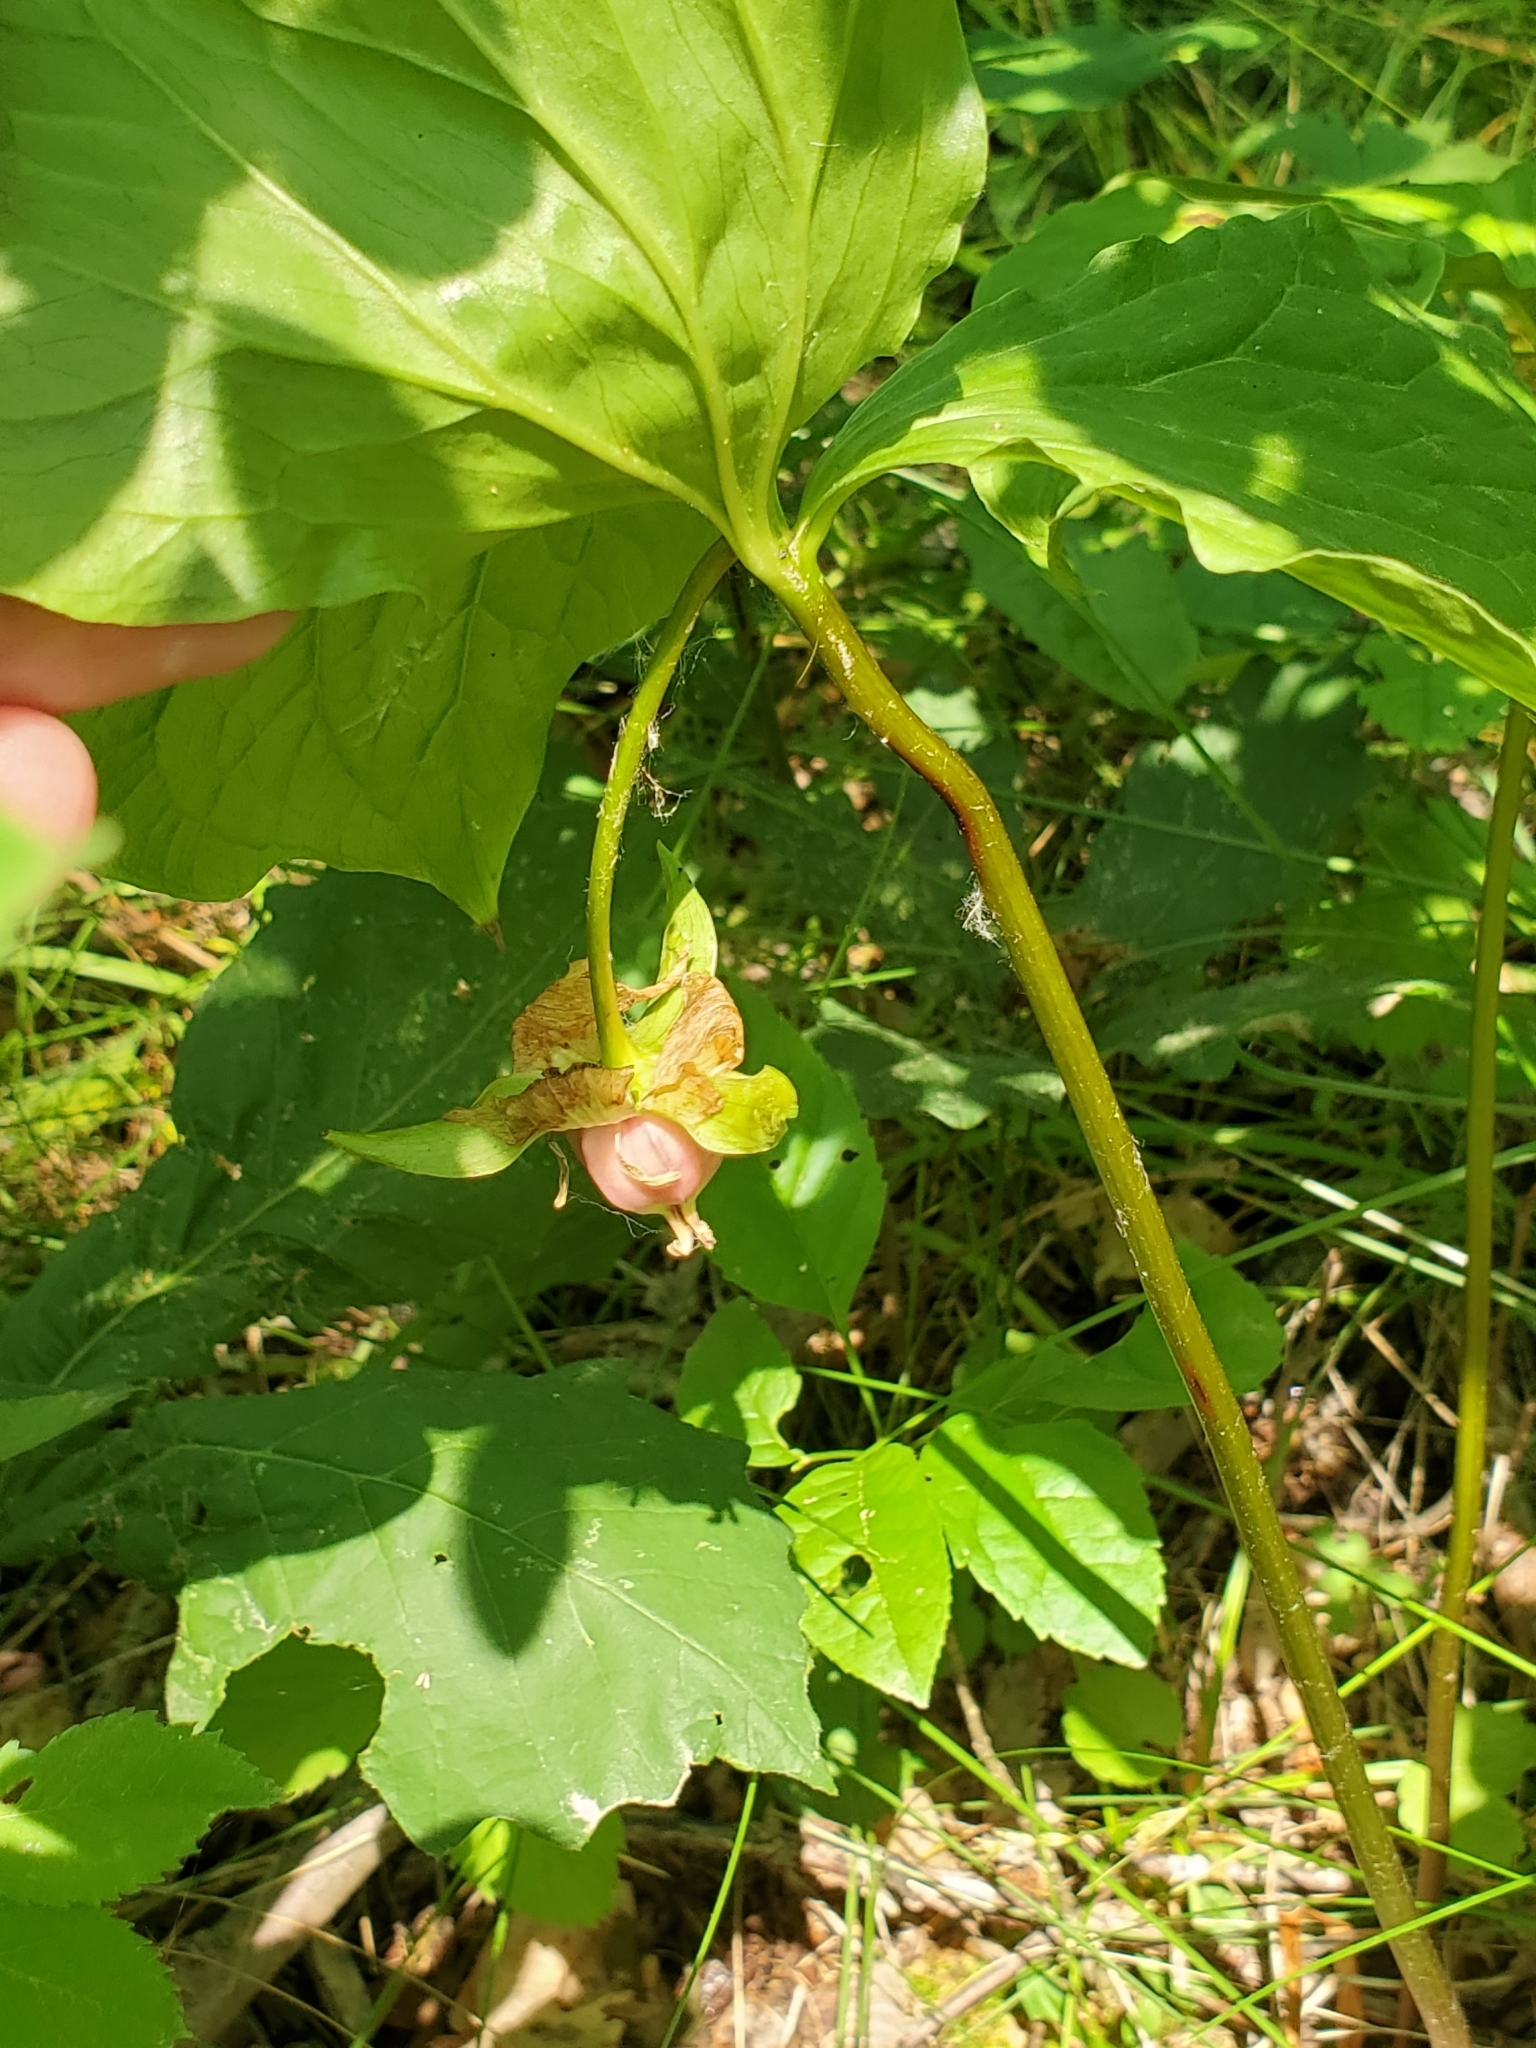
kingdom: Plantae
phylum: Tracheophyta
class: Liliopsida
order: Liliales
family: Melanthiaceae
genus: Trillium
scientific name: Trillium cernuum
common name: Nodding trillium
